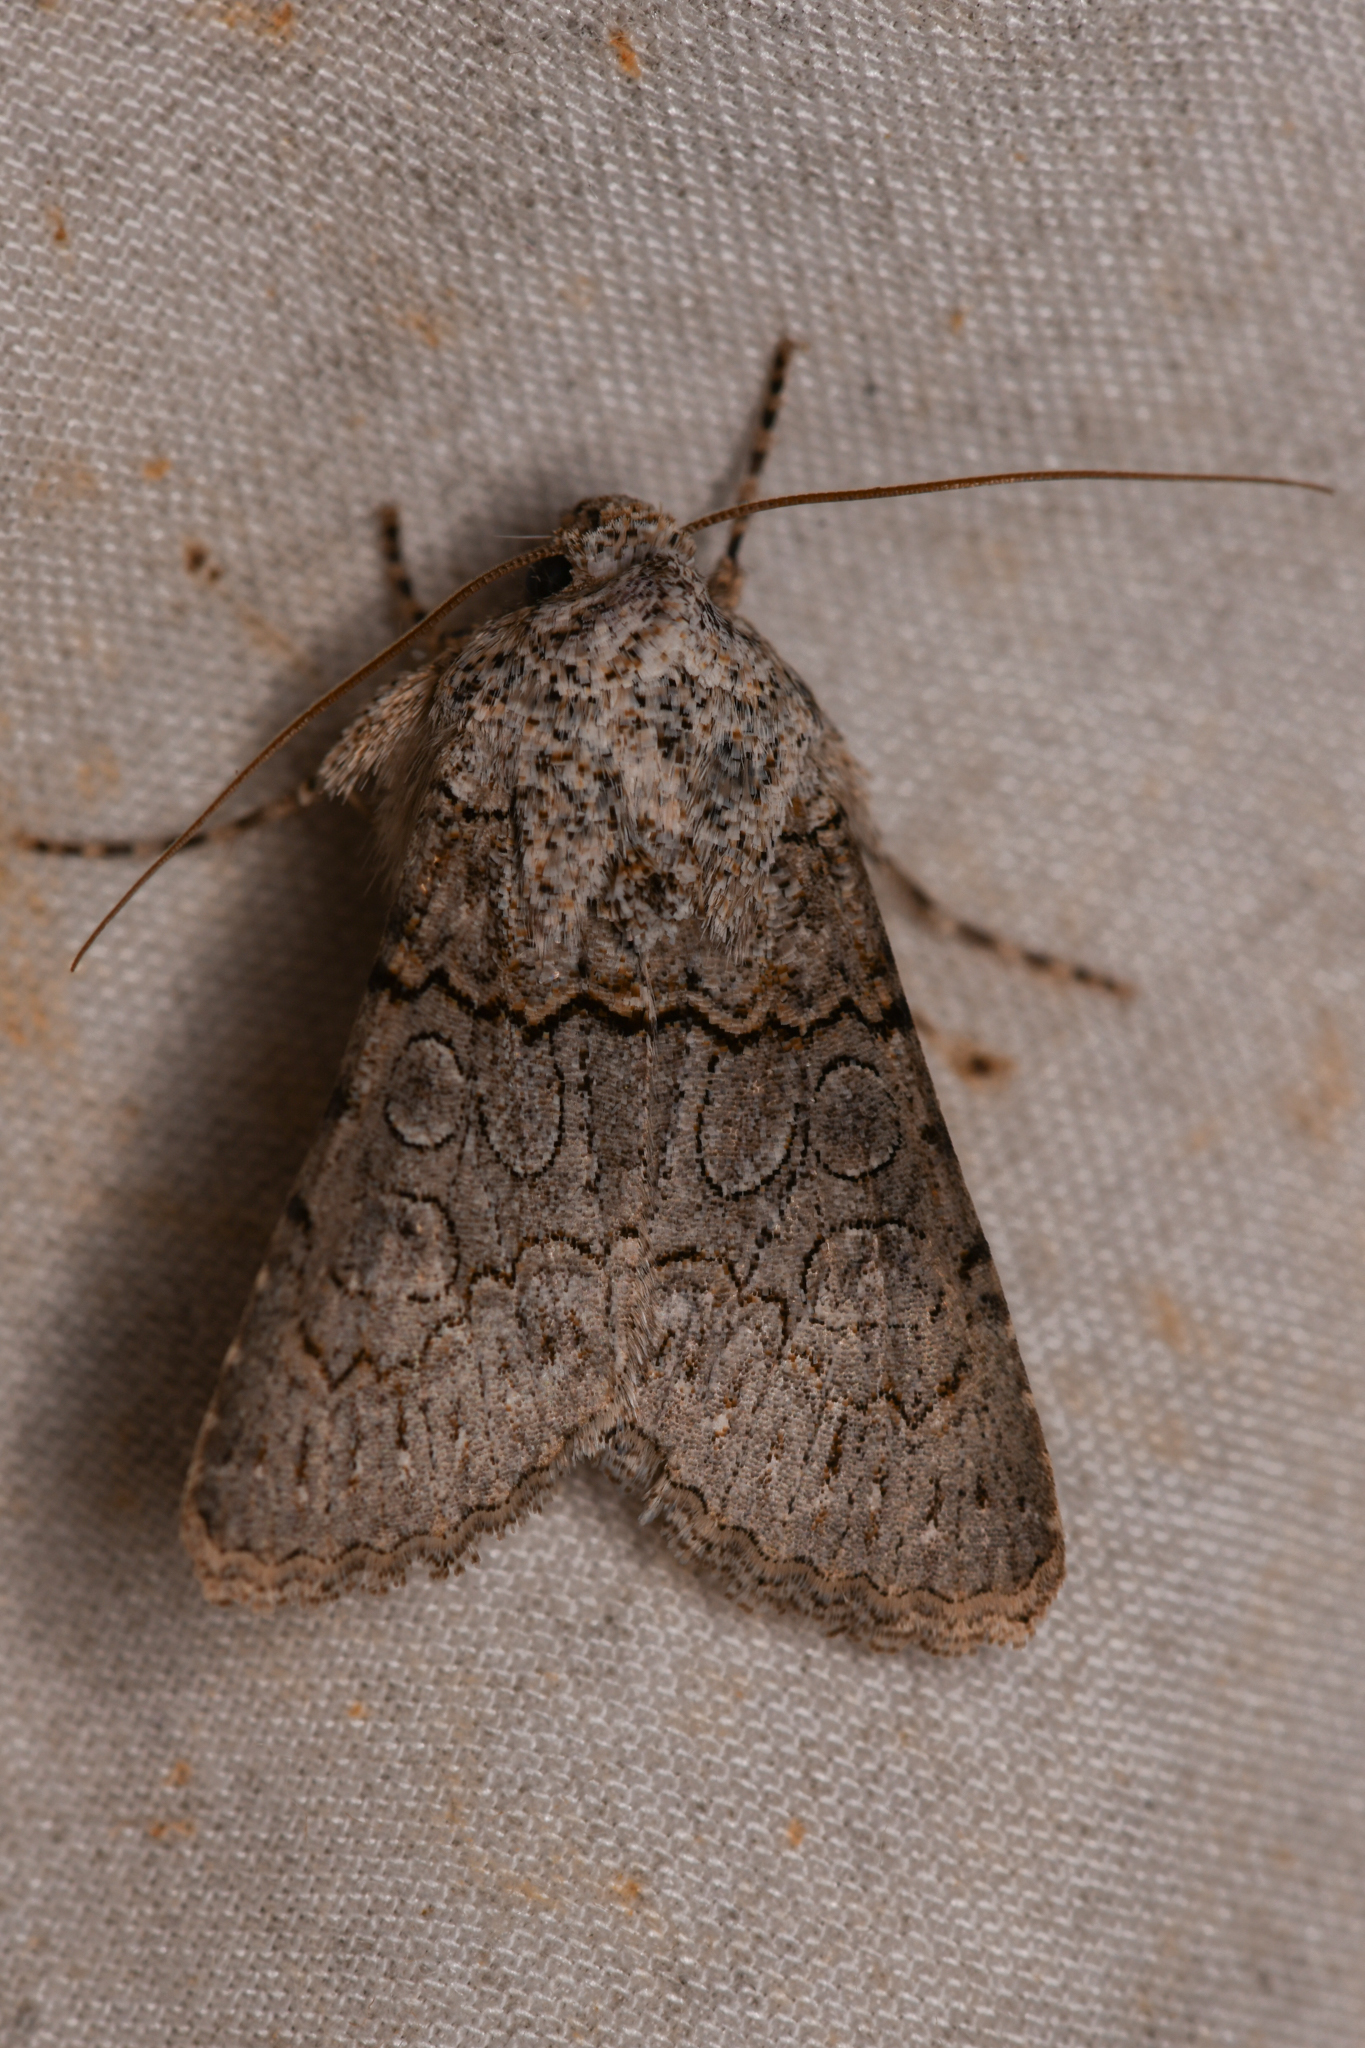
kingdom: Animalia
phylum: Arthropoda
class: Insecta
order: Lepidoptera
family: Noctuidae
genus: Sympistis
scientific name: Sympistis perscripta
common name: Scribbled sallow
